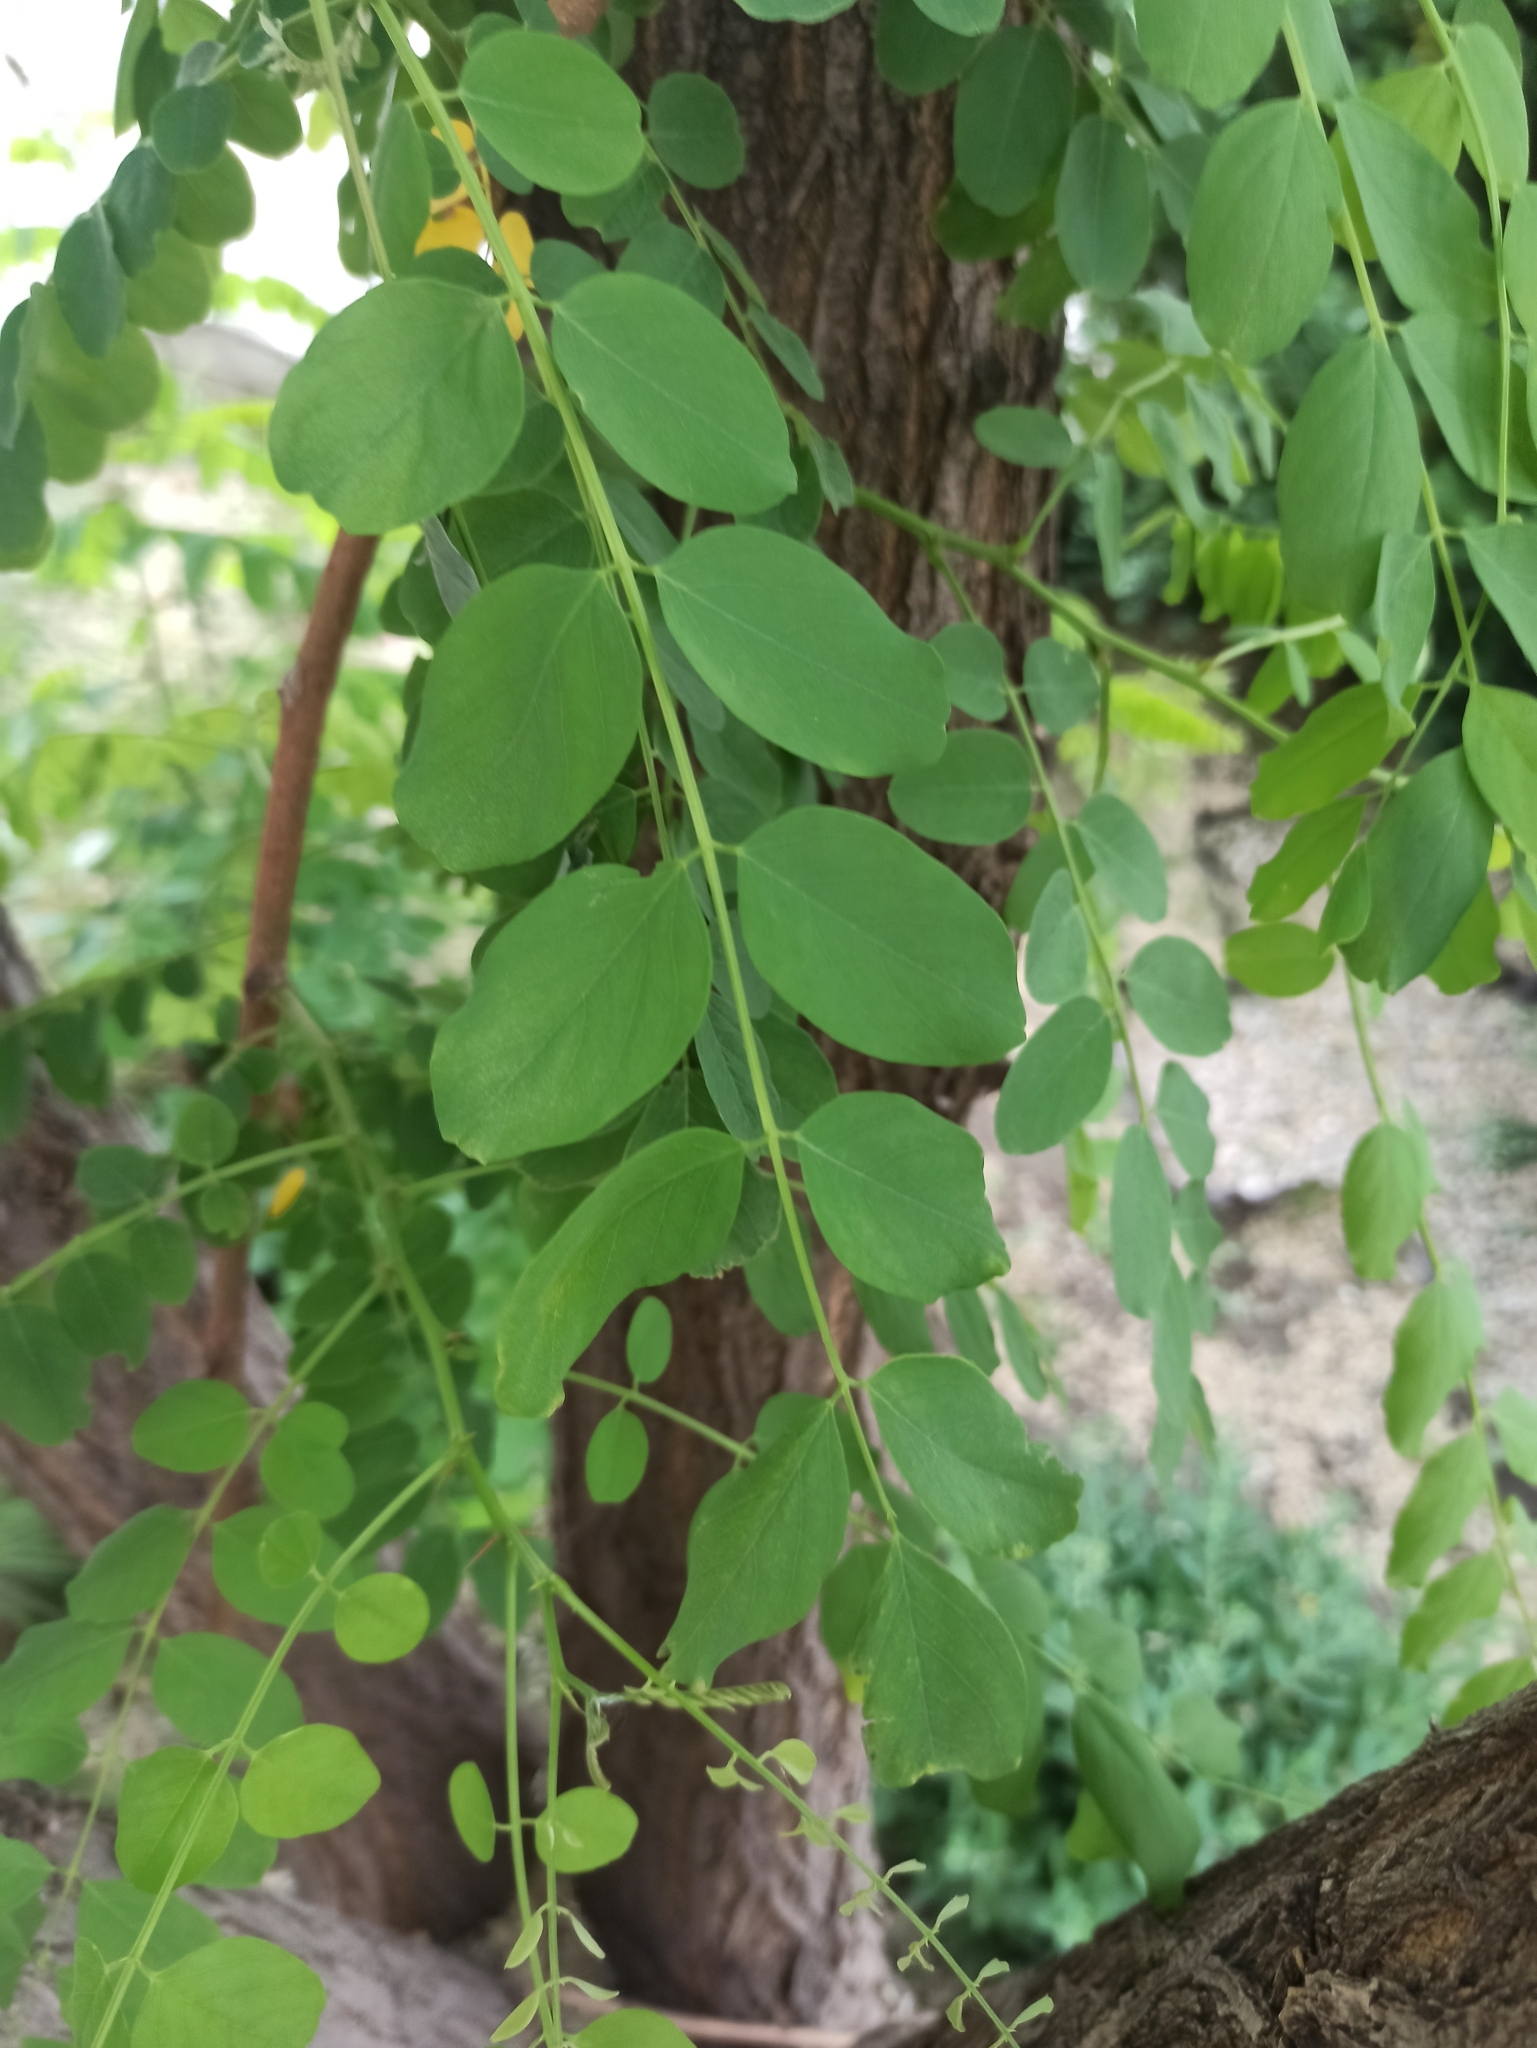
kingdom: Plantae
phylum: Tracheophyta
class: Magnoliopsida
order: Fabales
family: Fabaceae
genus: Robinia
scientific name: Robinia pseudoacacia
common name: Black locust
